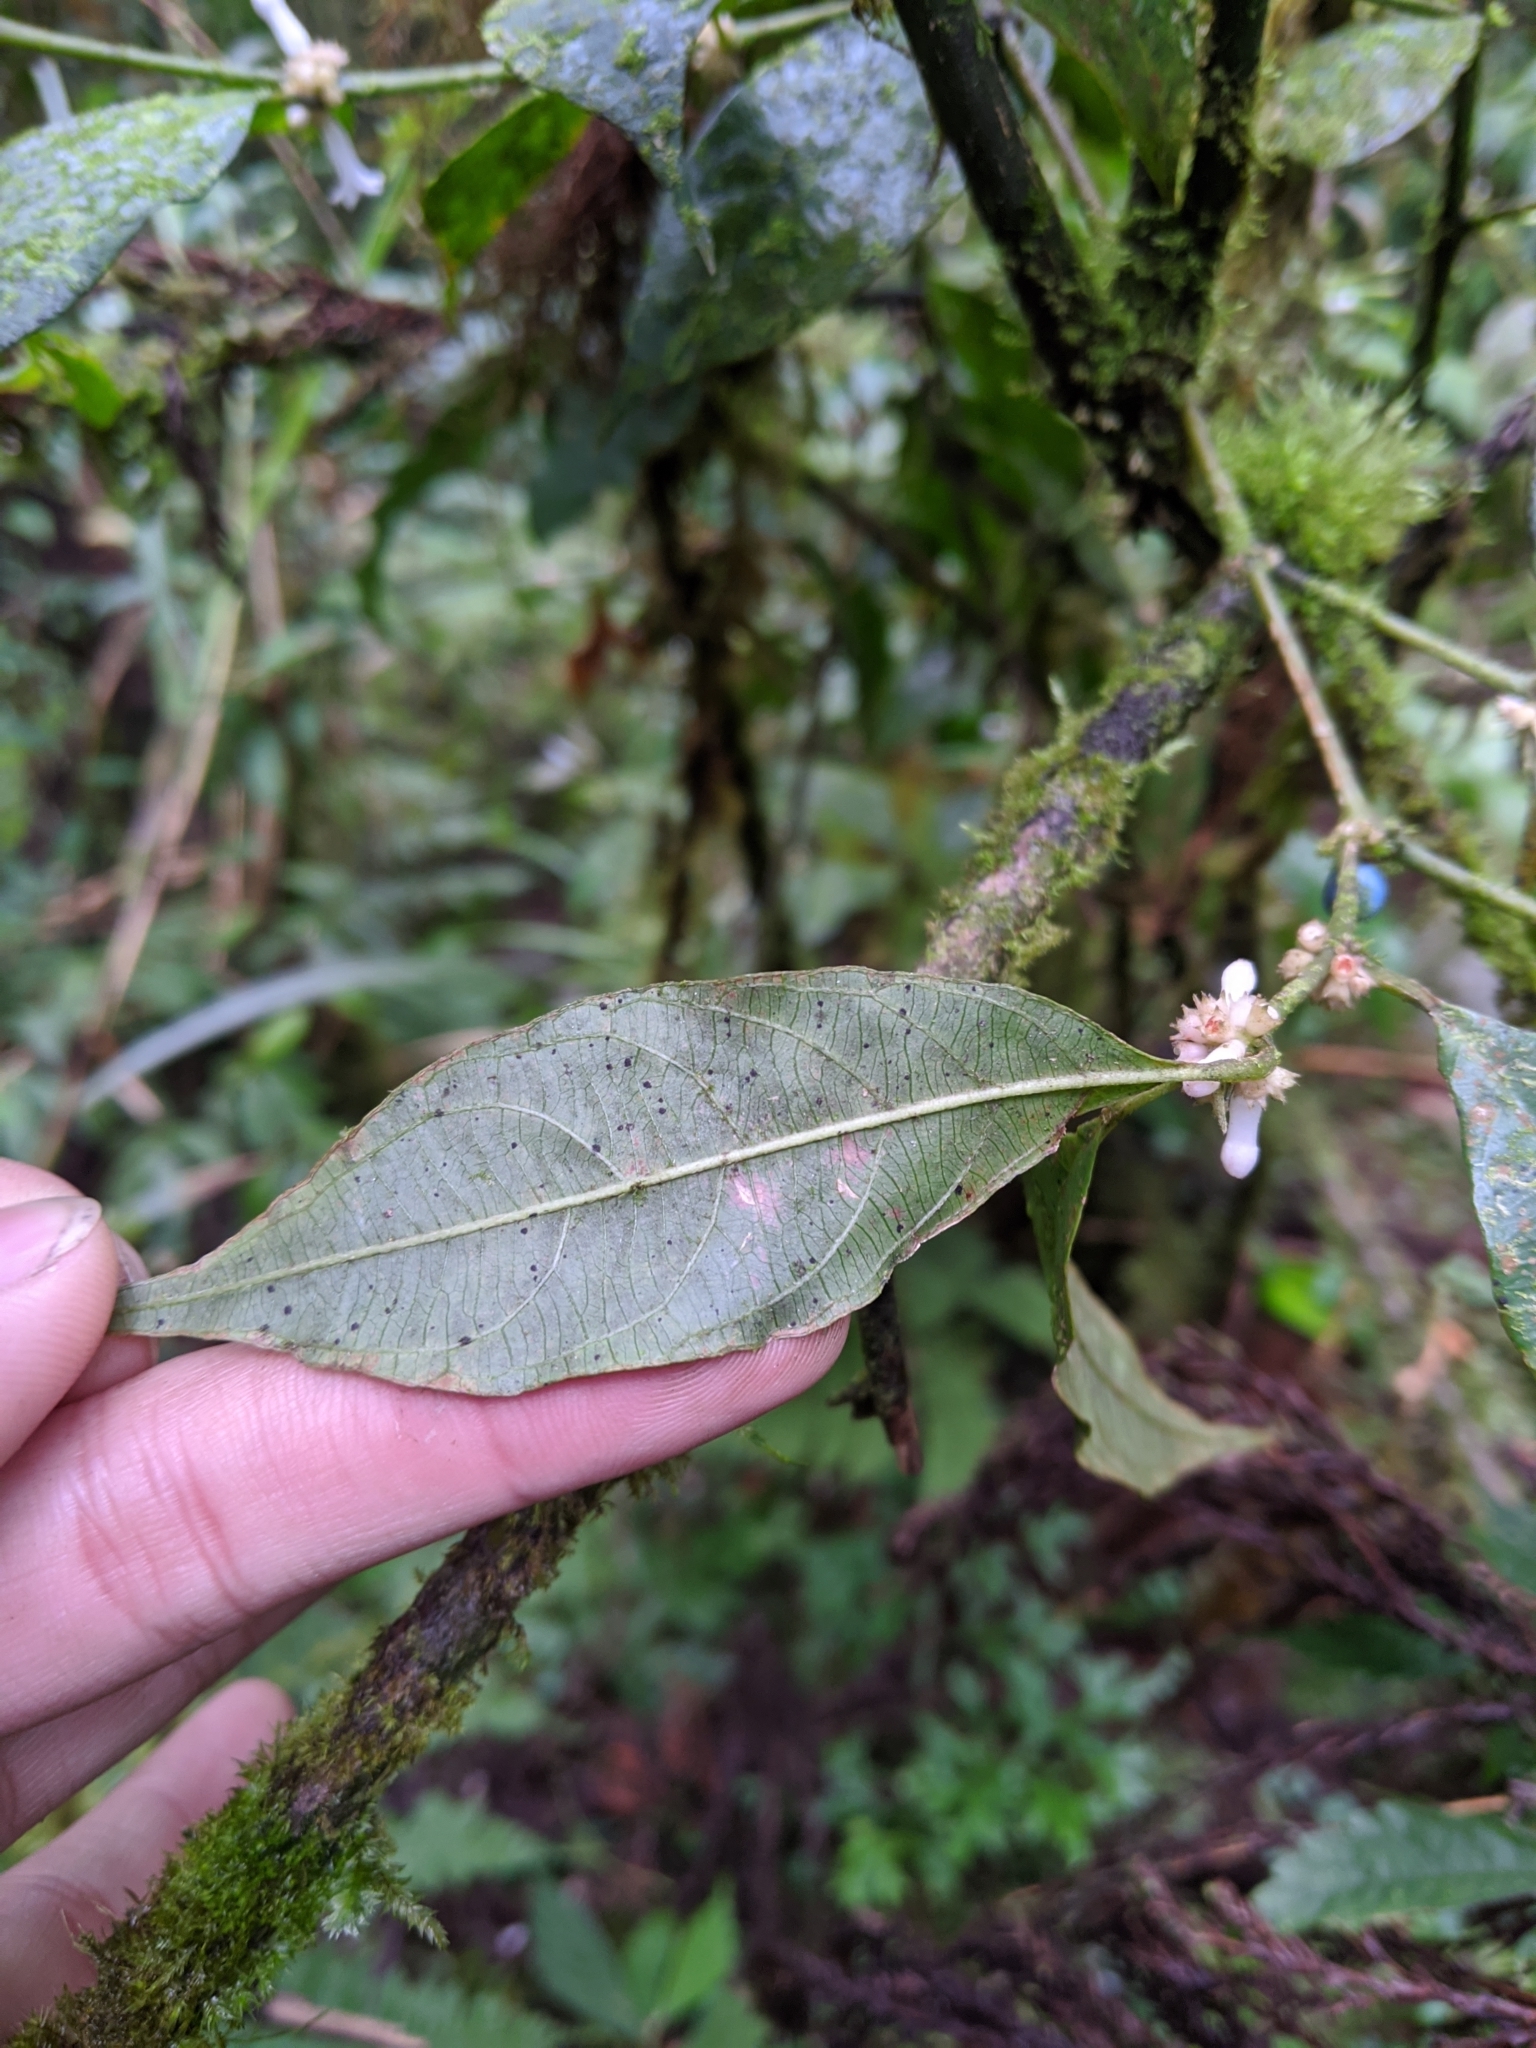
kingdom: Plantae
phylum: Tracheophyta
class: Magnoliopsida
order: Gentianales
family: Rubiaceae
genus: Lasianthus
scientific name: Lasianthus fordii
